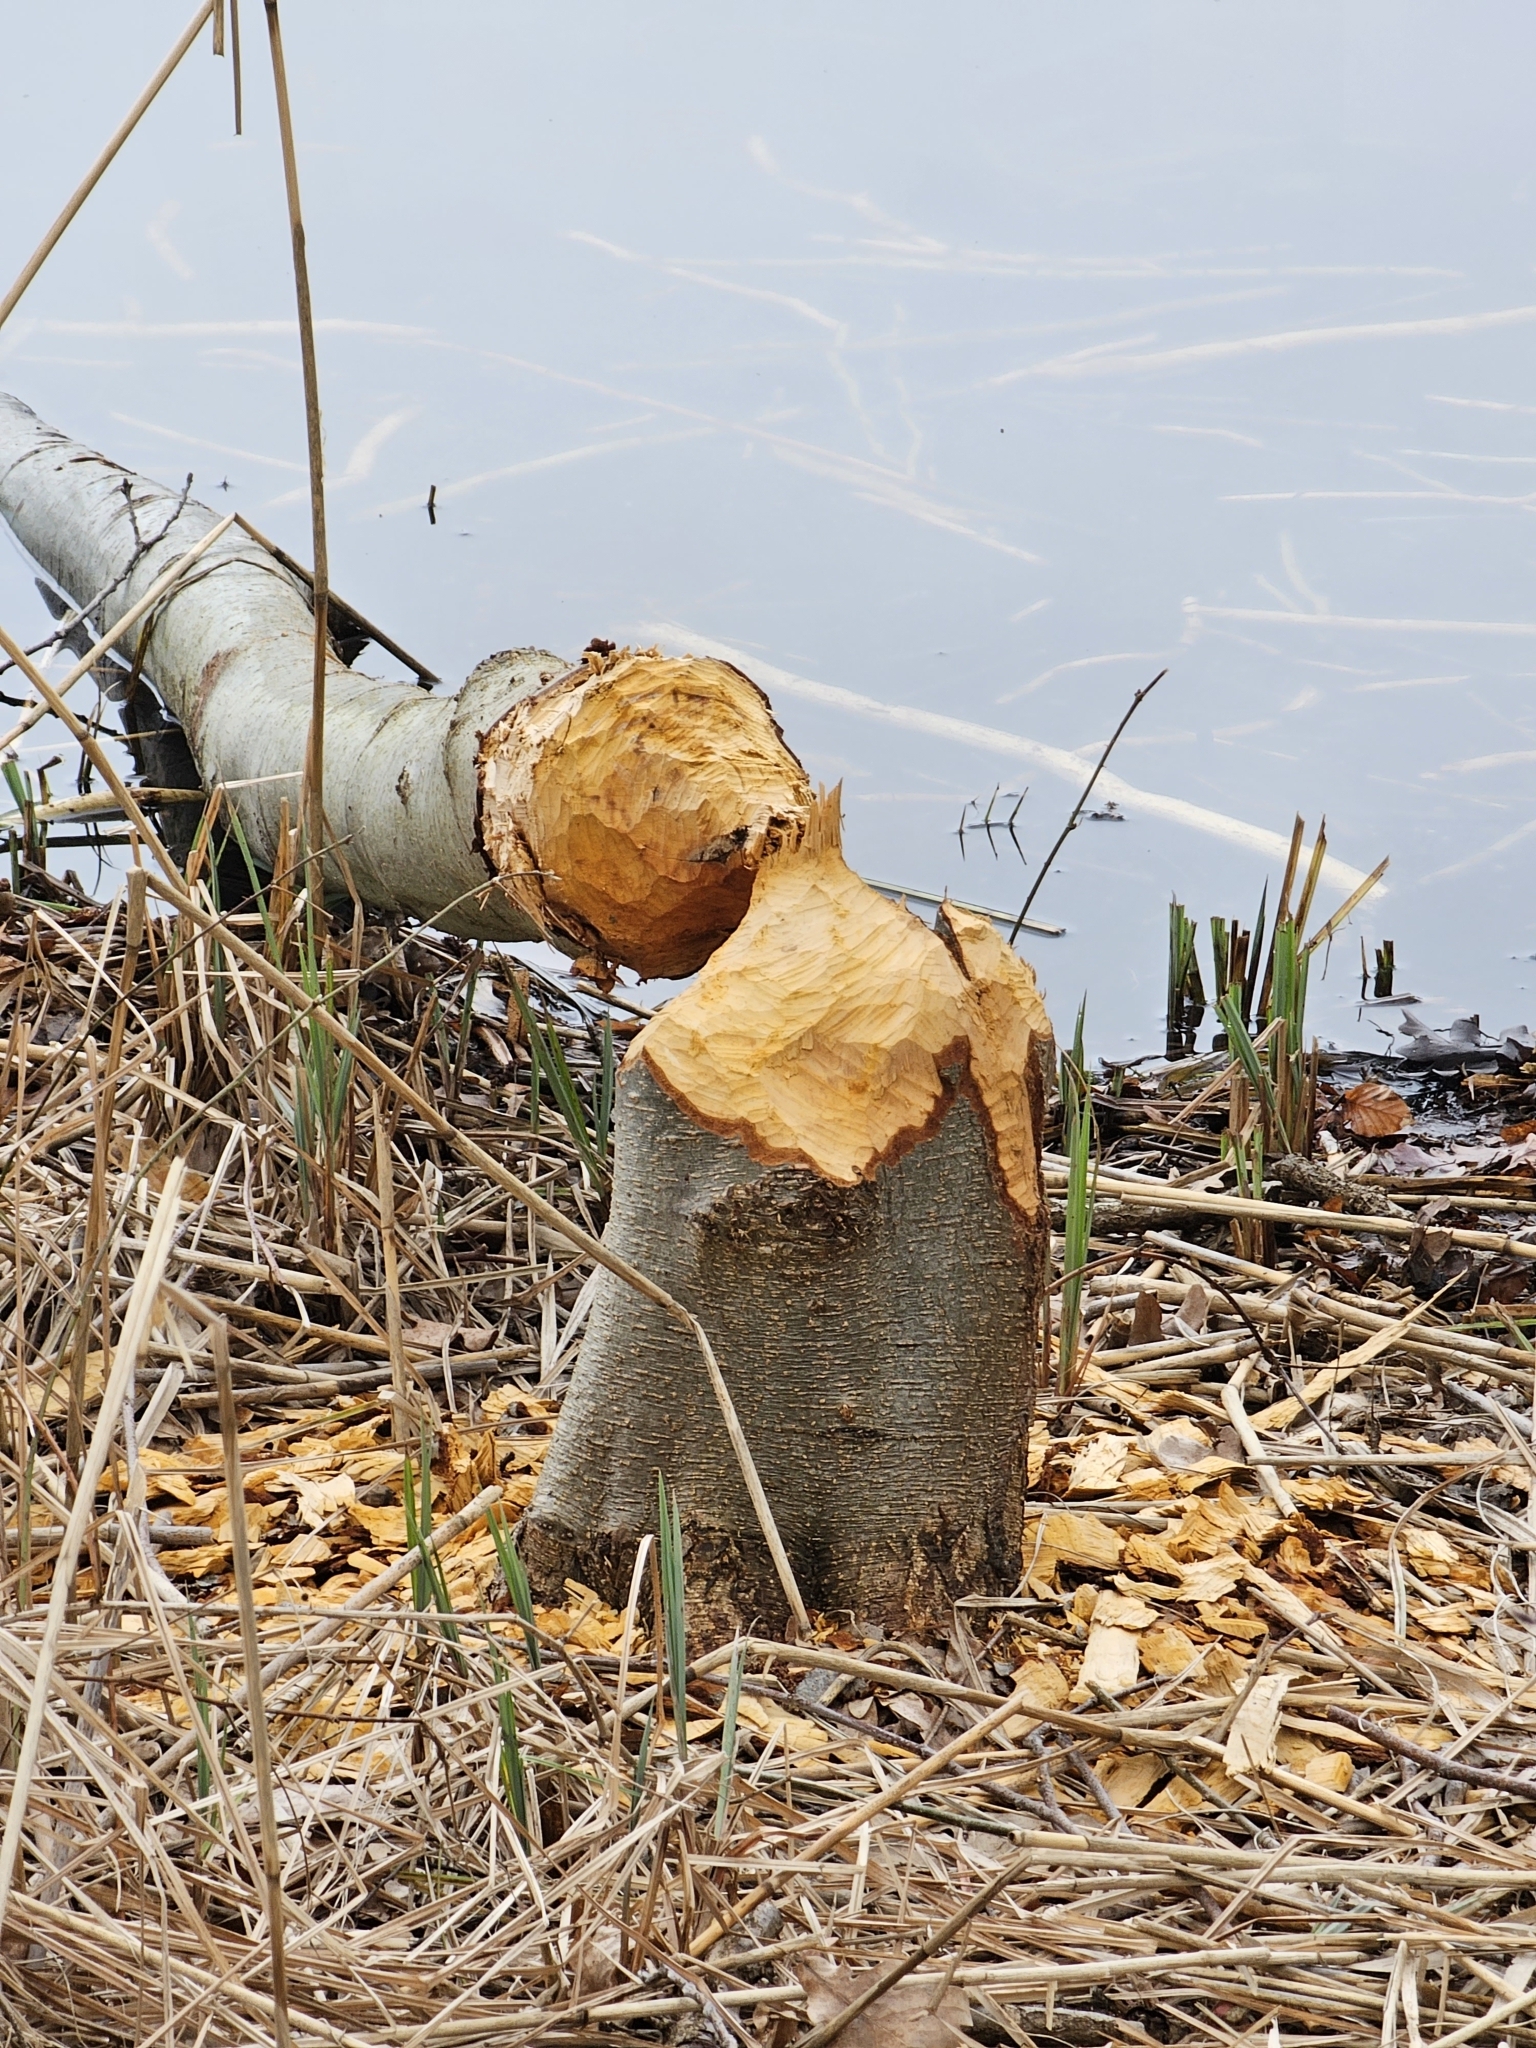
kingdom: Animalia
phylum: Chordata
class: Mammalia
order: Rodentia
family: Castoridae
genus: Castor
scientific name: Castor fiber
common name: Eurasian beaver
